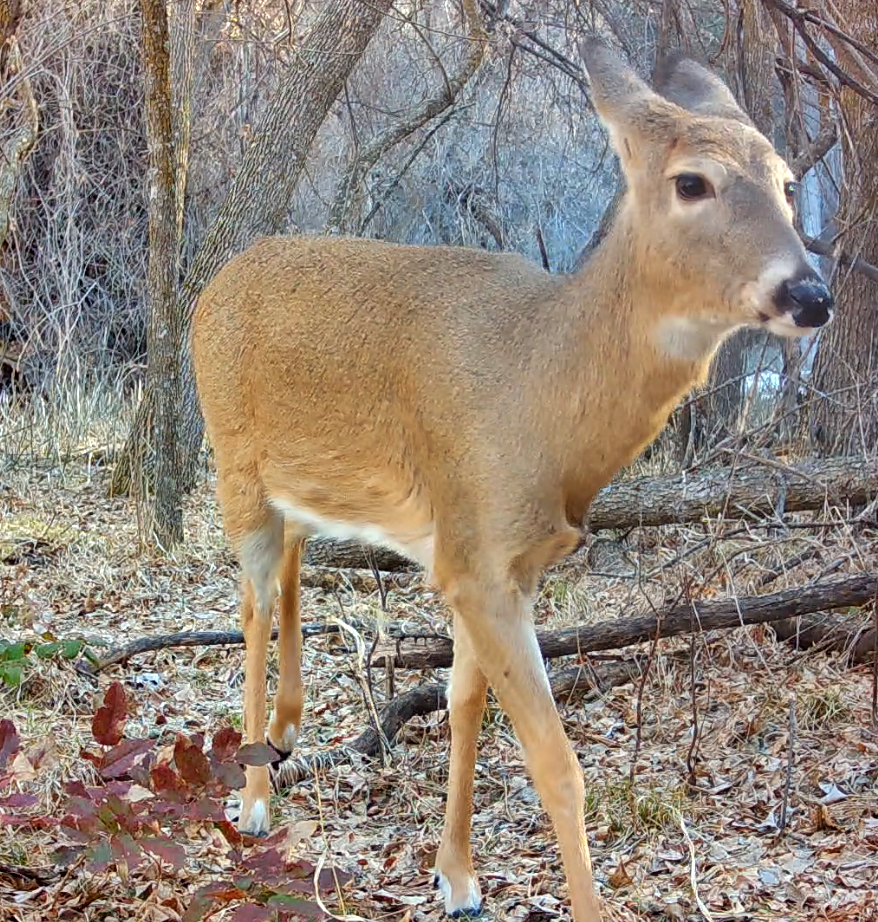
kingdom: Animalia
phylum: Chordata
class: Mammalia
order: Artiodactyla
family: Cervidae
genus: Odocoileus
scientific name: Odocoileus virginianus
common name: White-tailed deer
